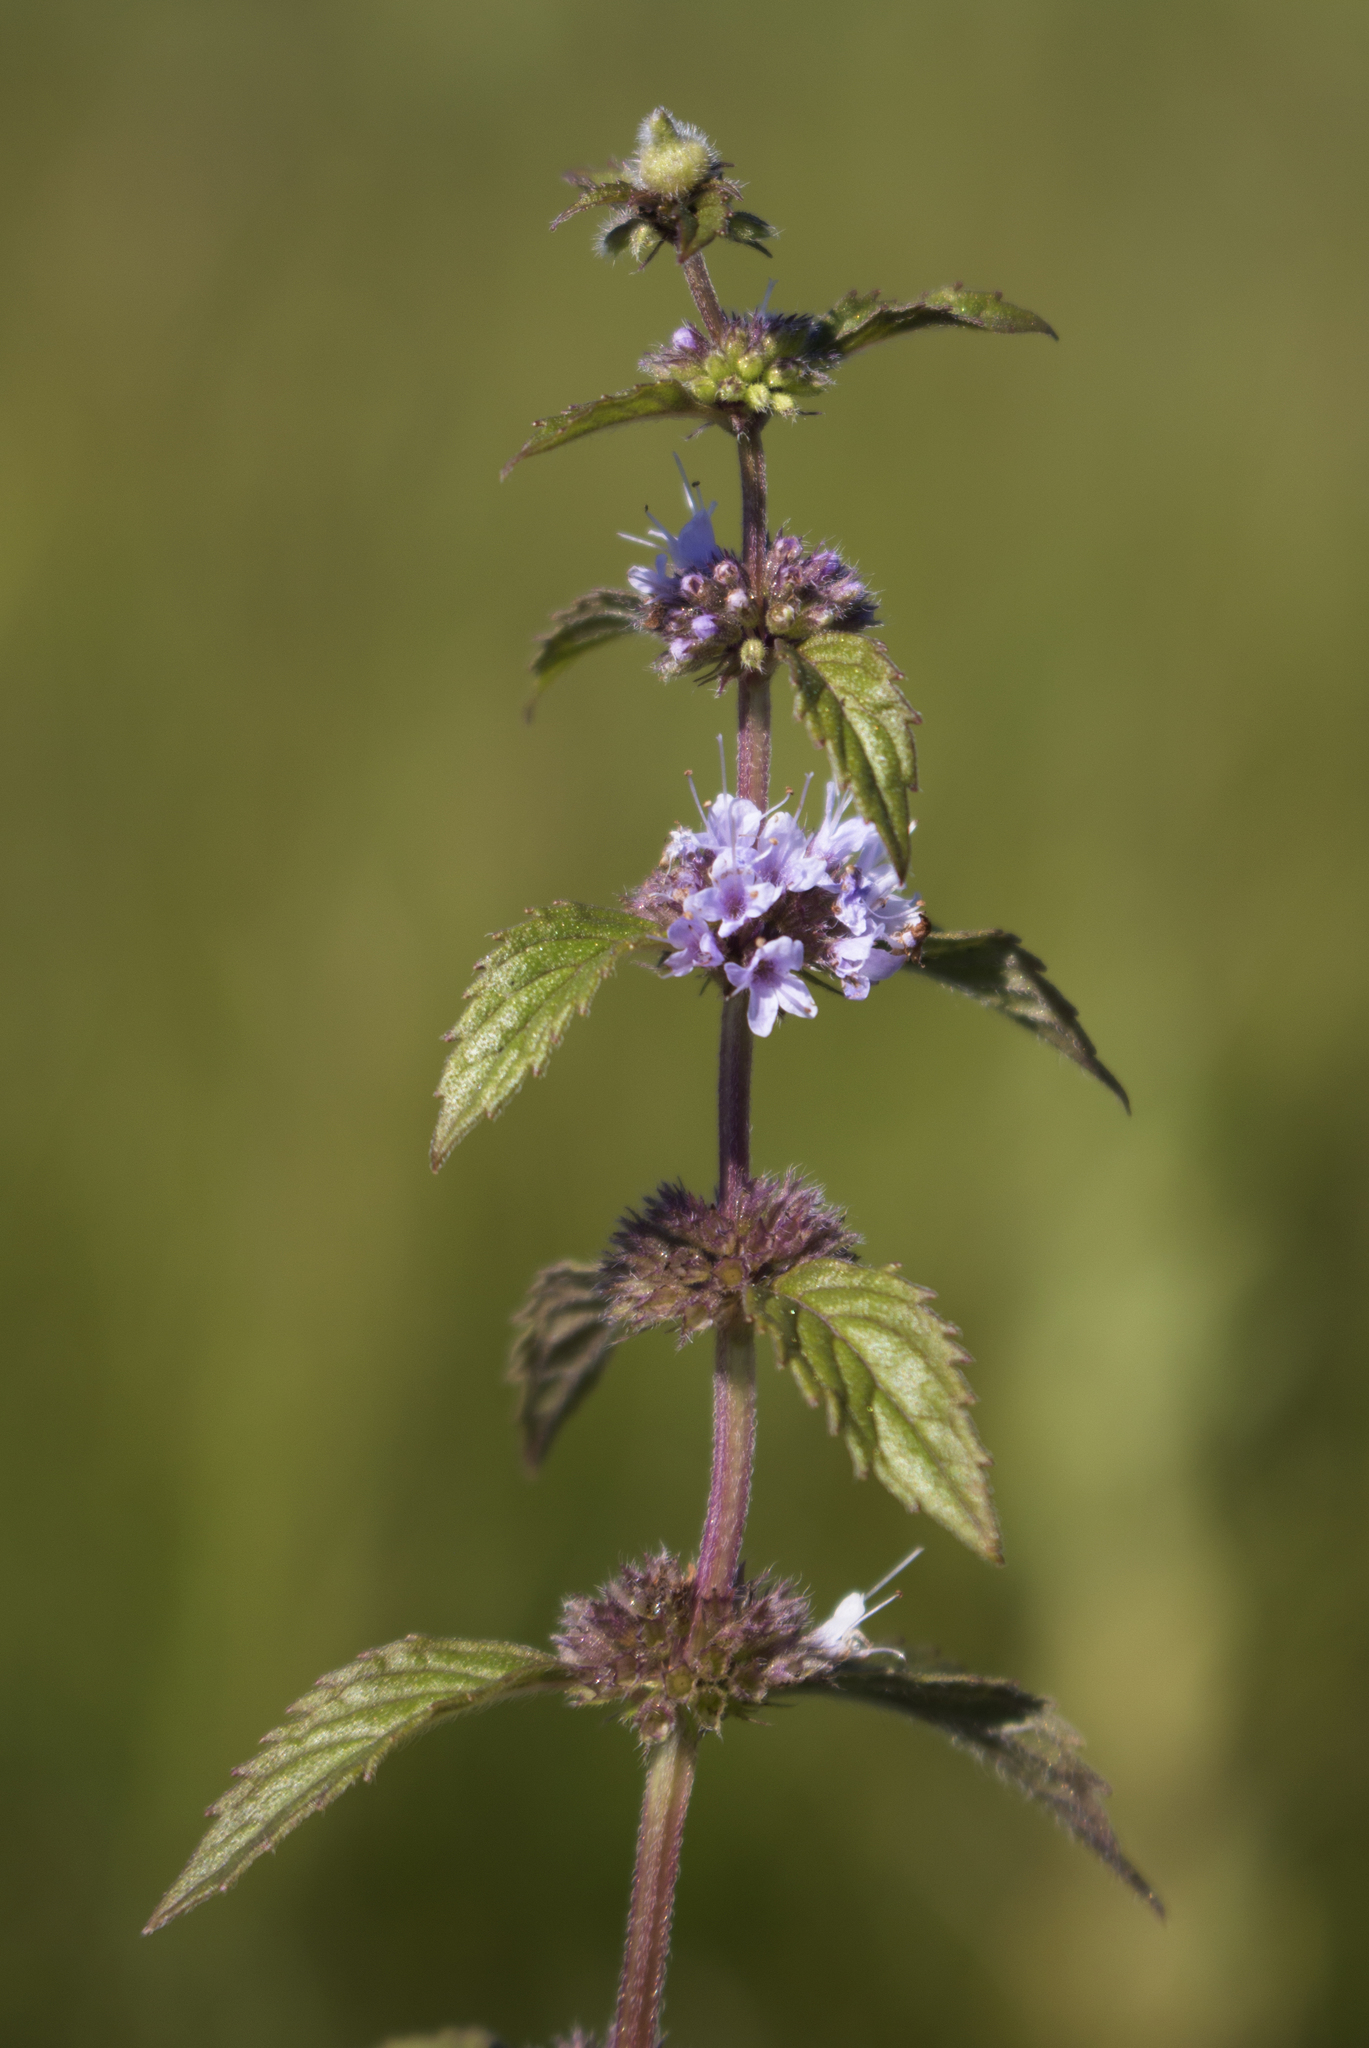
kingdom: Plantae
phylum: Tracheophyta
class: Magnoliopsida
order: Lamiales
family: Lamiaceae
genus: Mentha
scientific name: Mentha arvensis
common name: Corn mint
